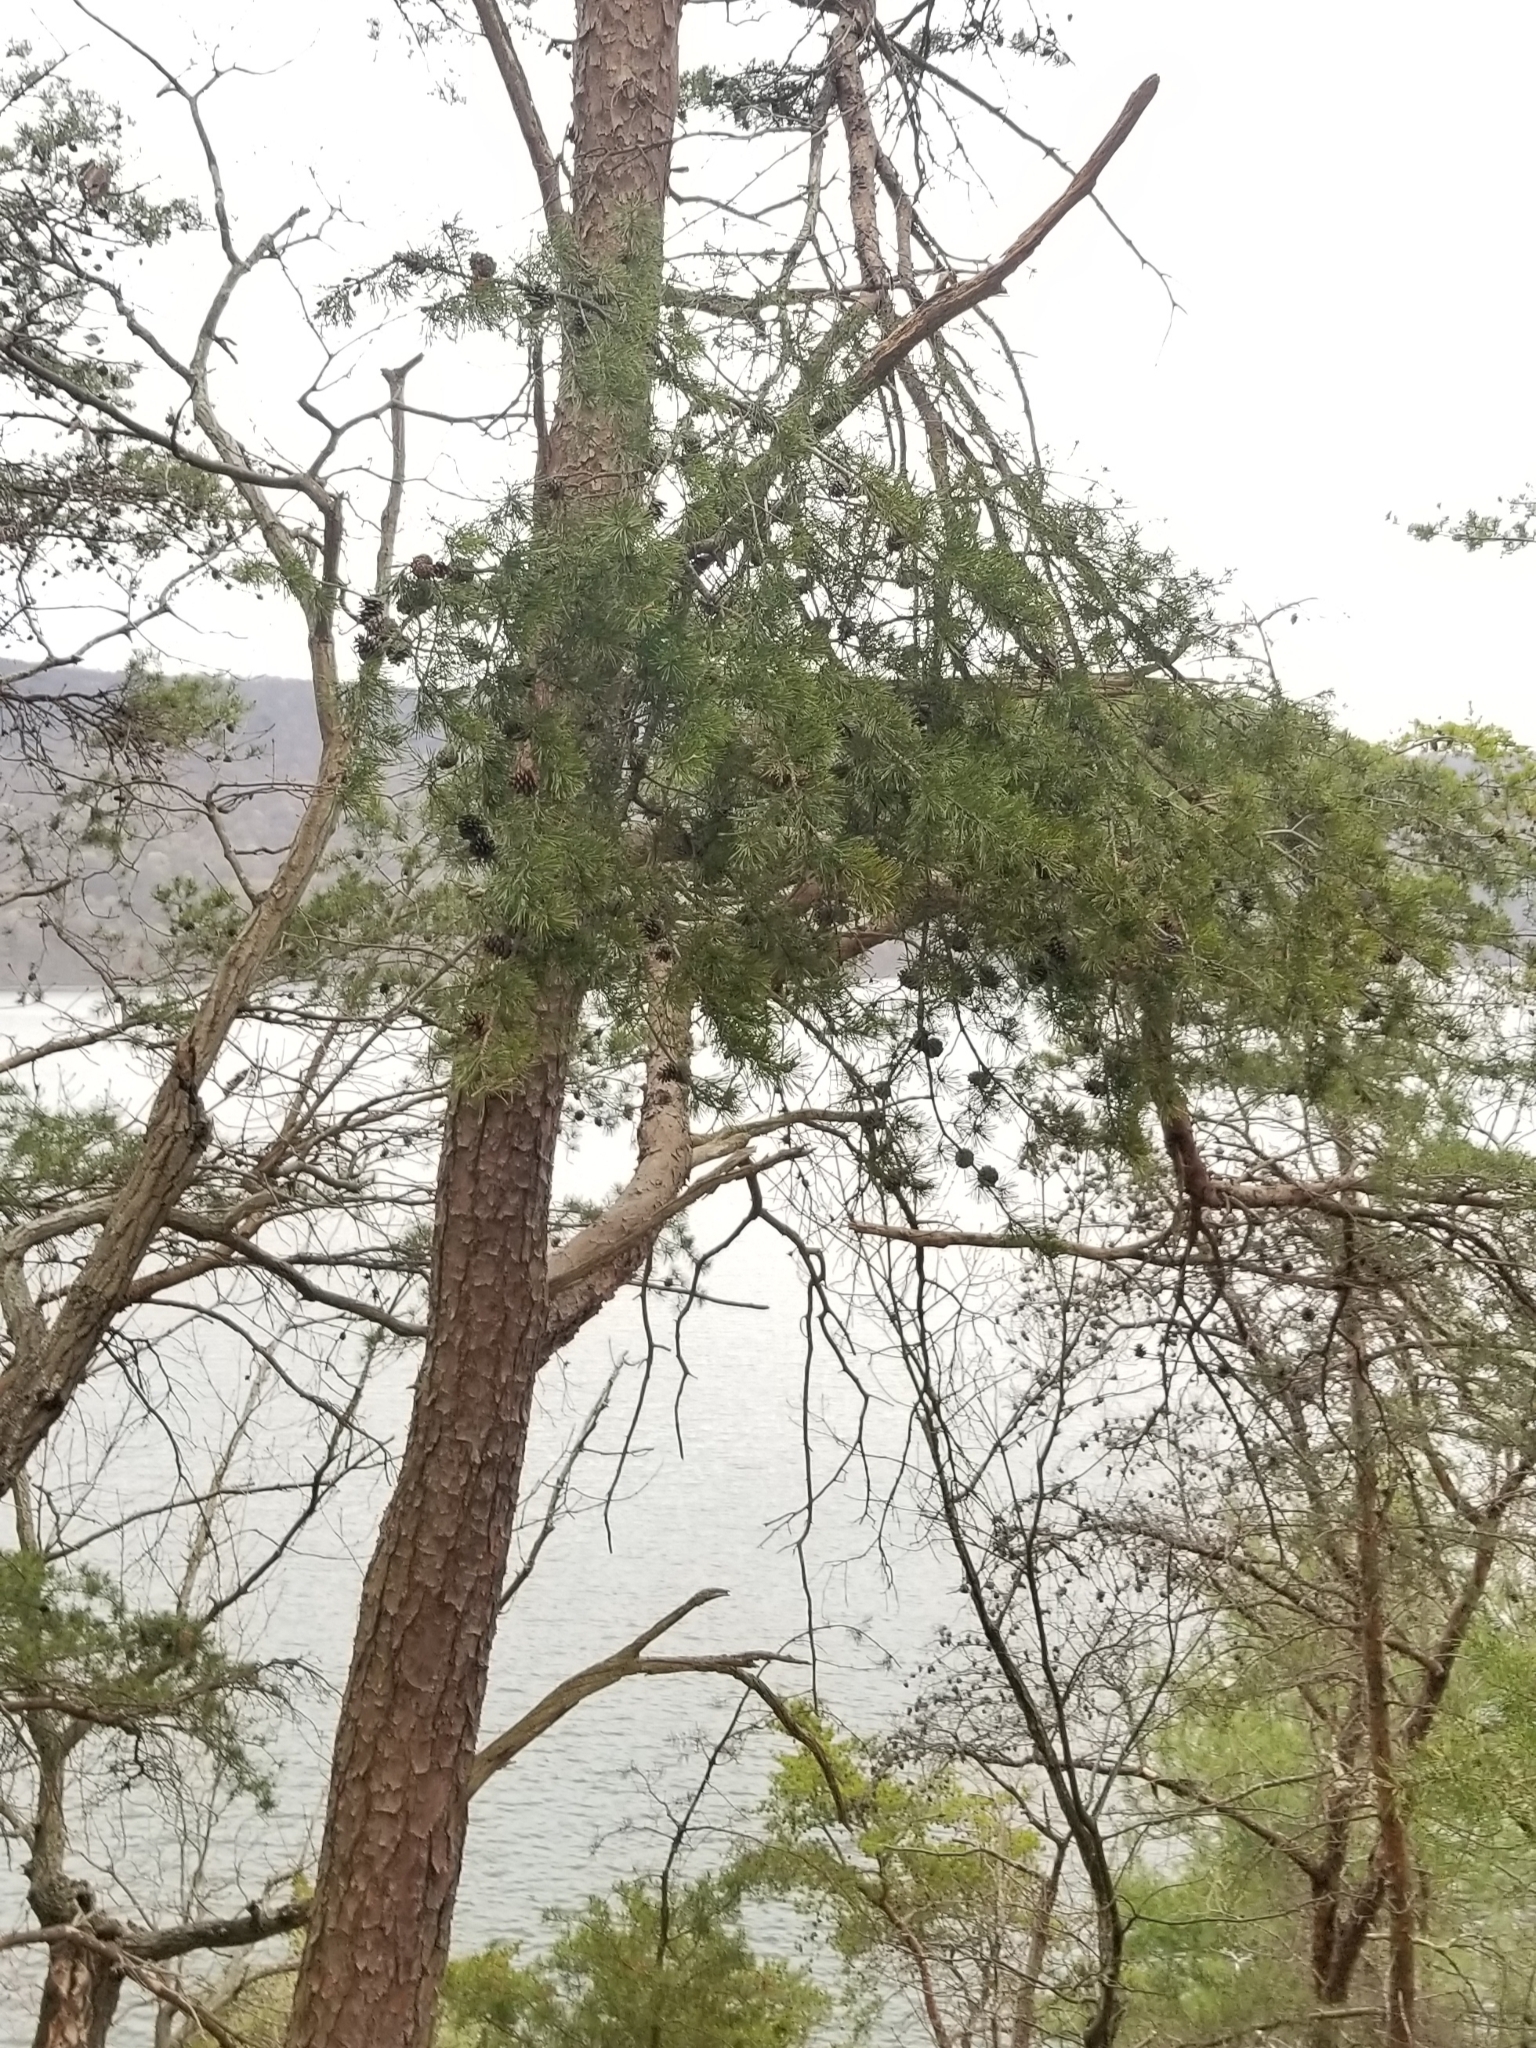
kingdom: Plantae
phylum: Tracheophyta
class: Pinopsida
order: Pinales
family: Pinaceae
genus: Pinus
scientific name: Pinus virginiana
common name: Scrub pine
